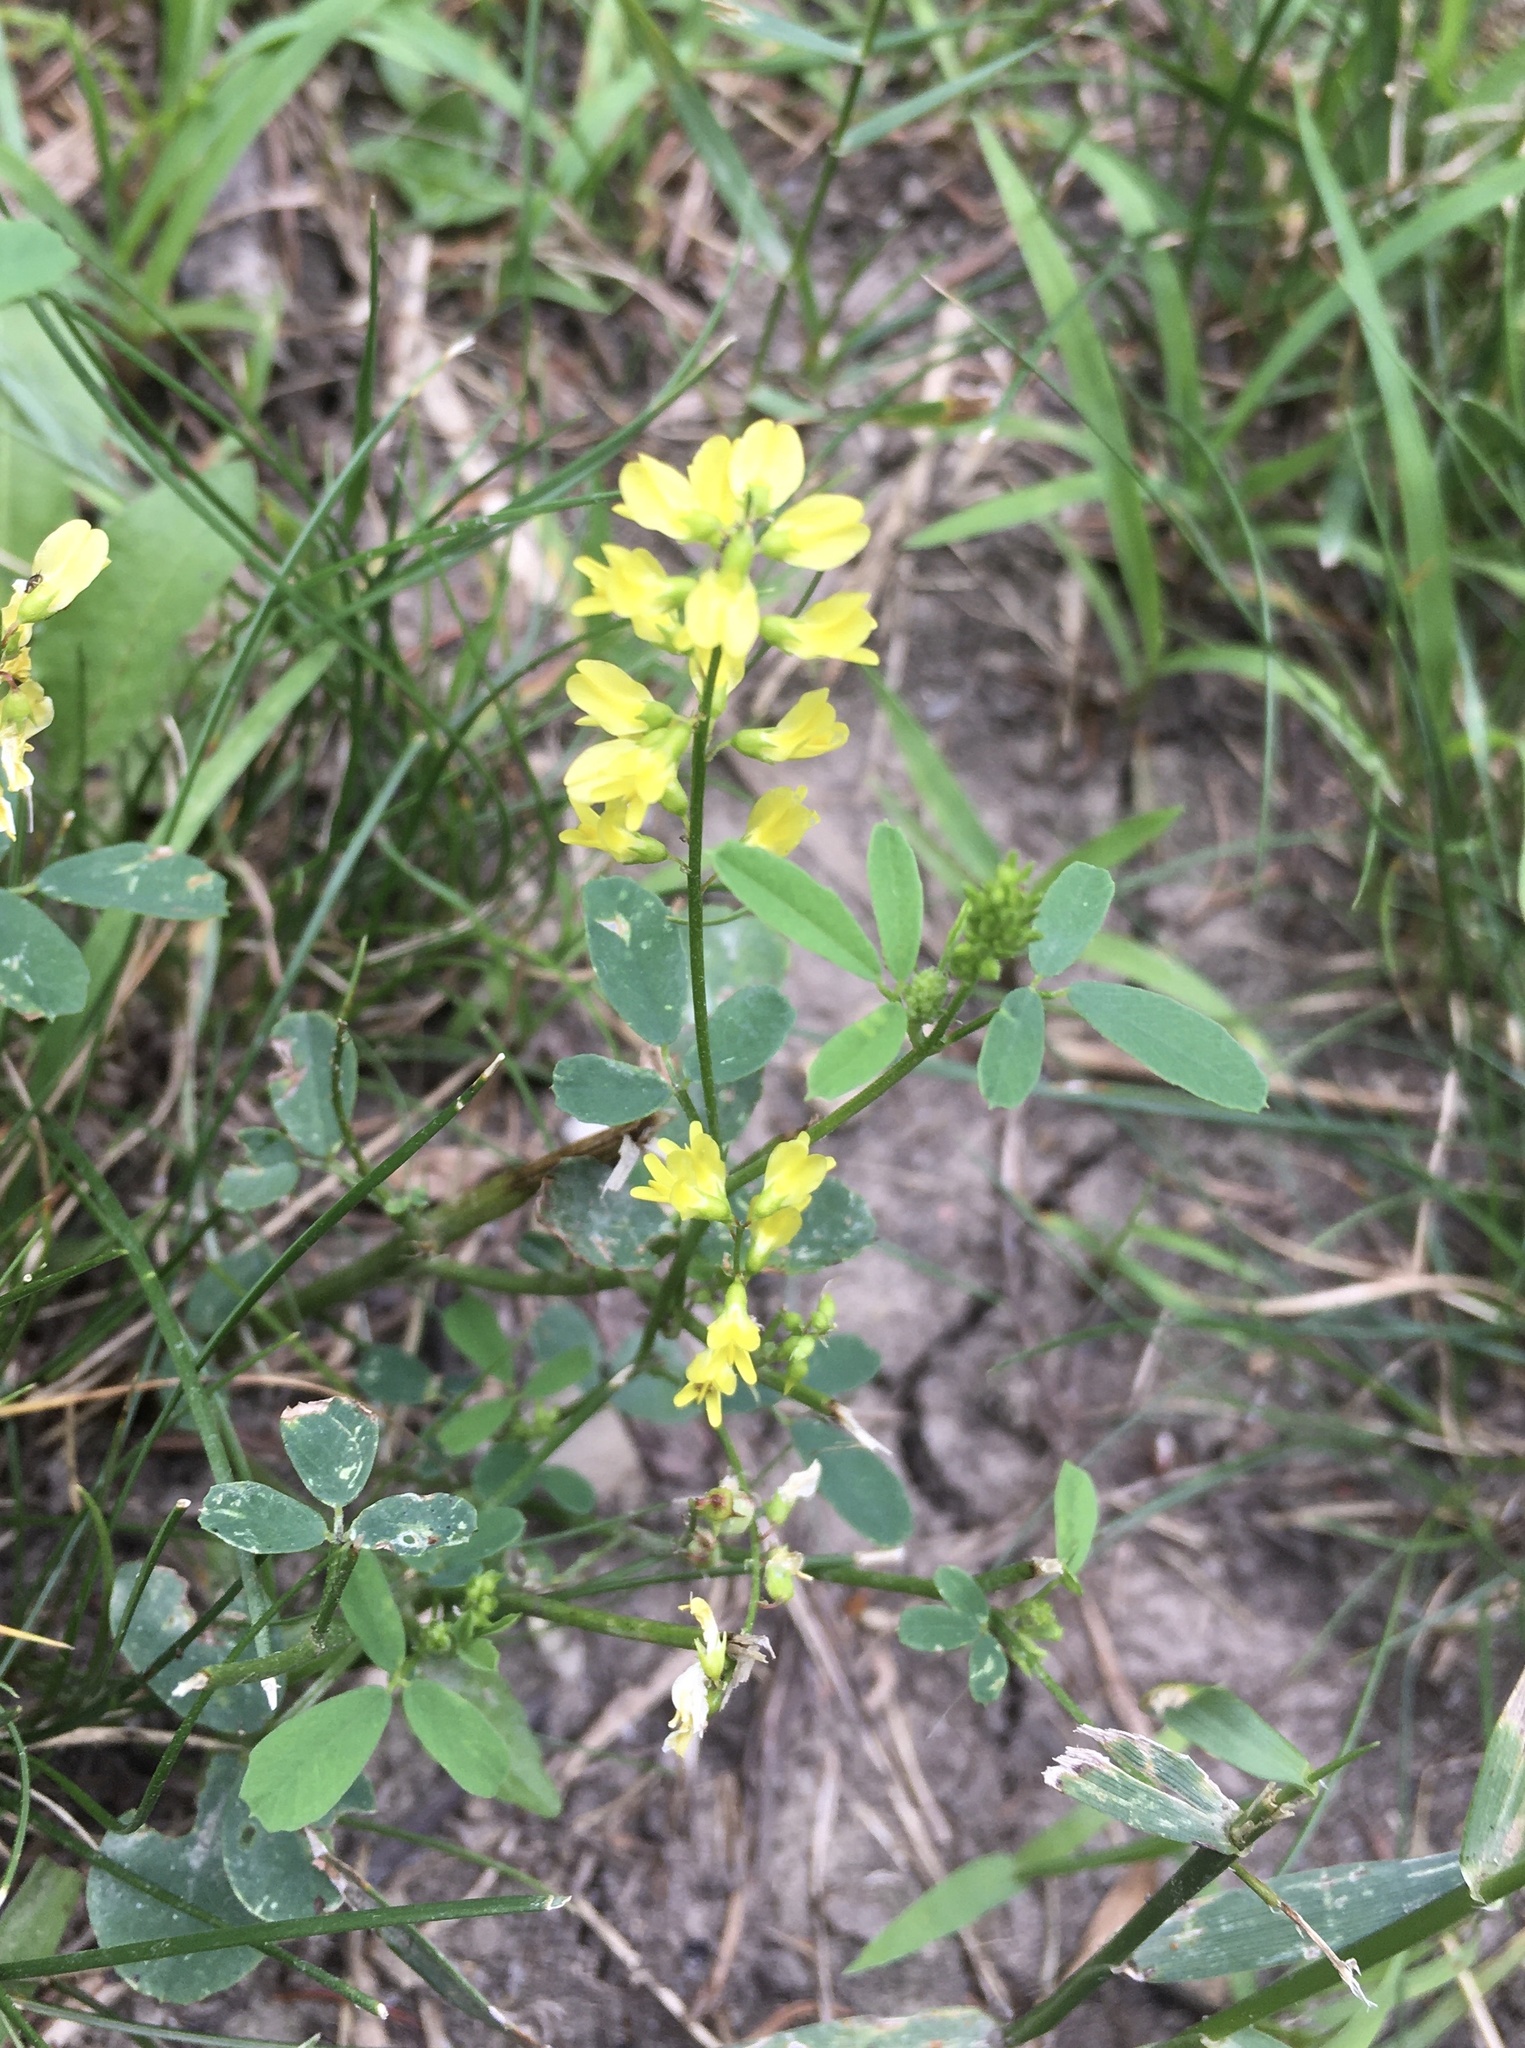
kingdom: Plantae
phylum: Tracheophyta
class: Magnoliopsida
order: Fabales
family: Fabaceae
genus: Melilotus
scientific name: Melilotus officinalis
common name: Sweetclover
